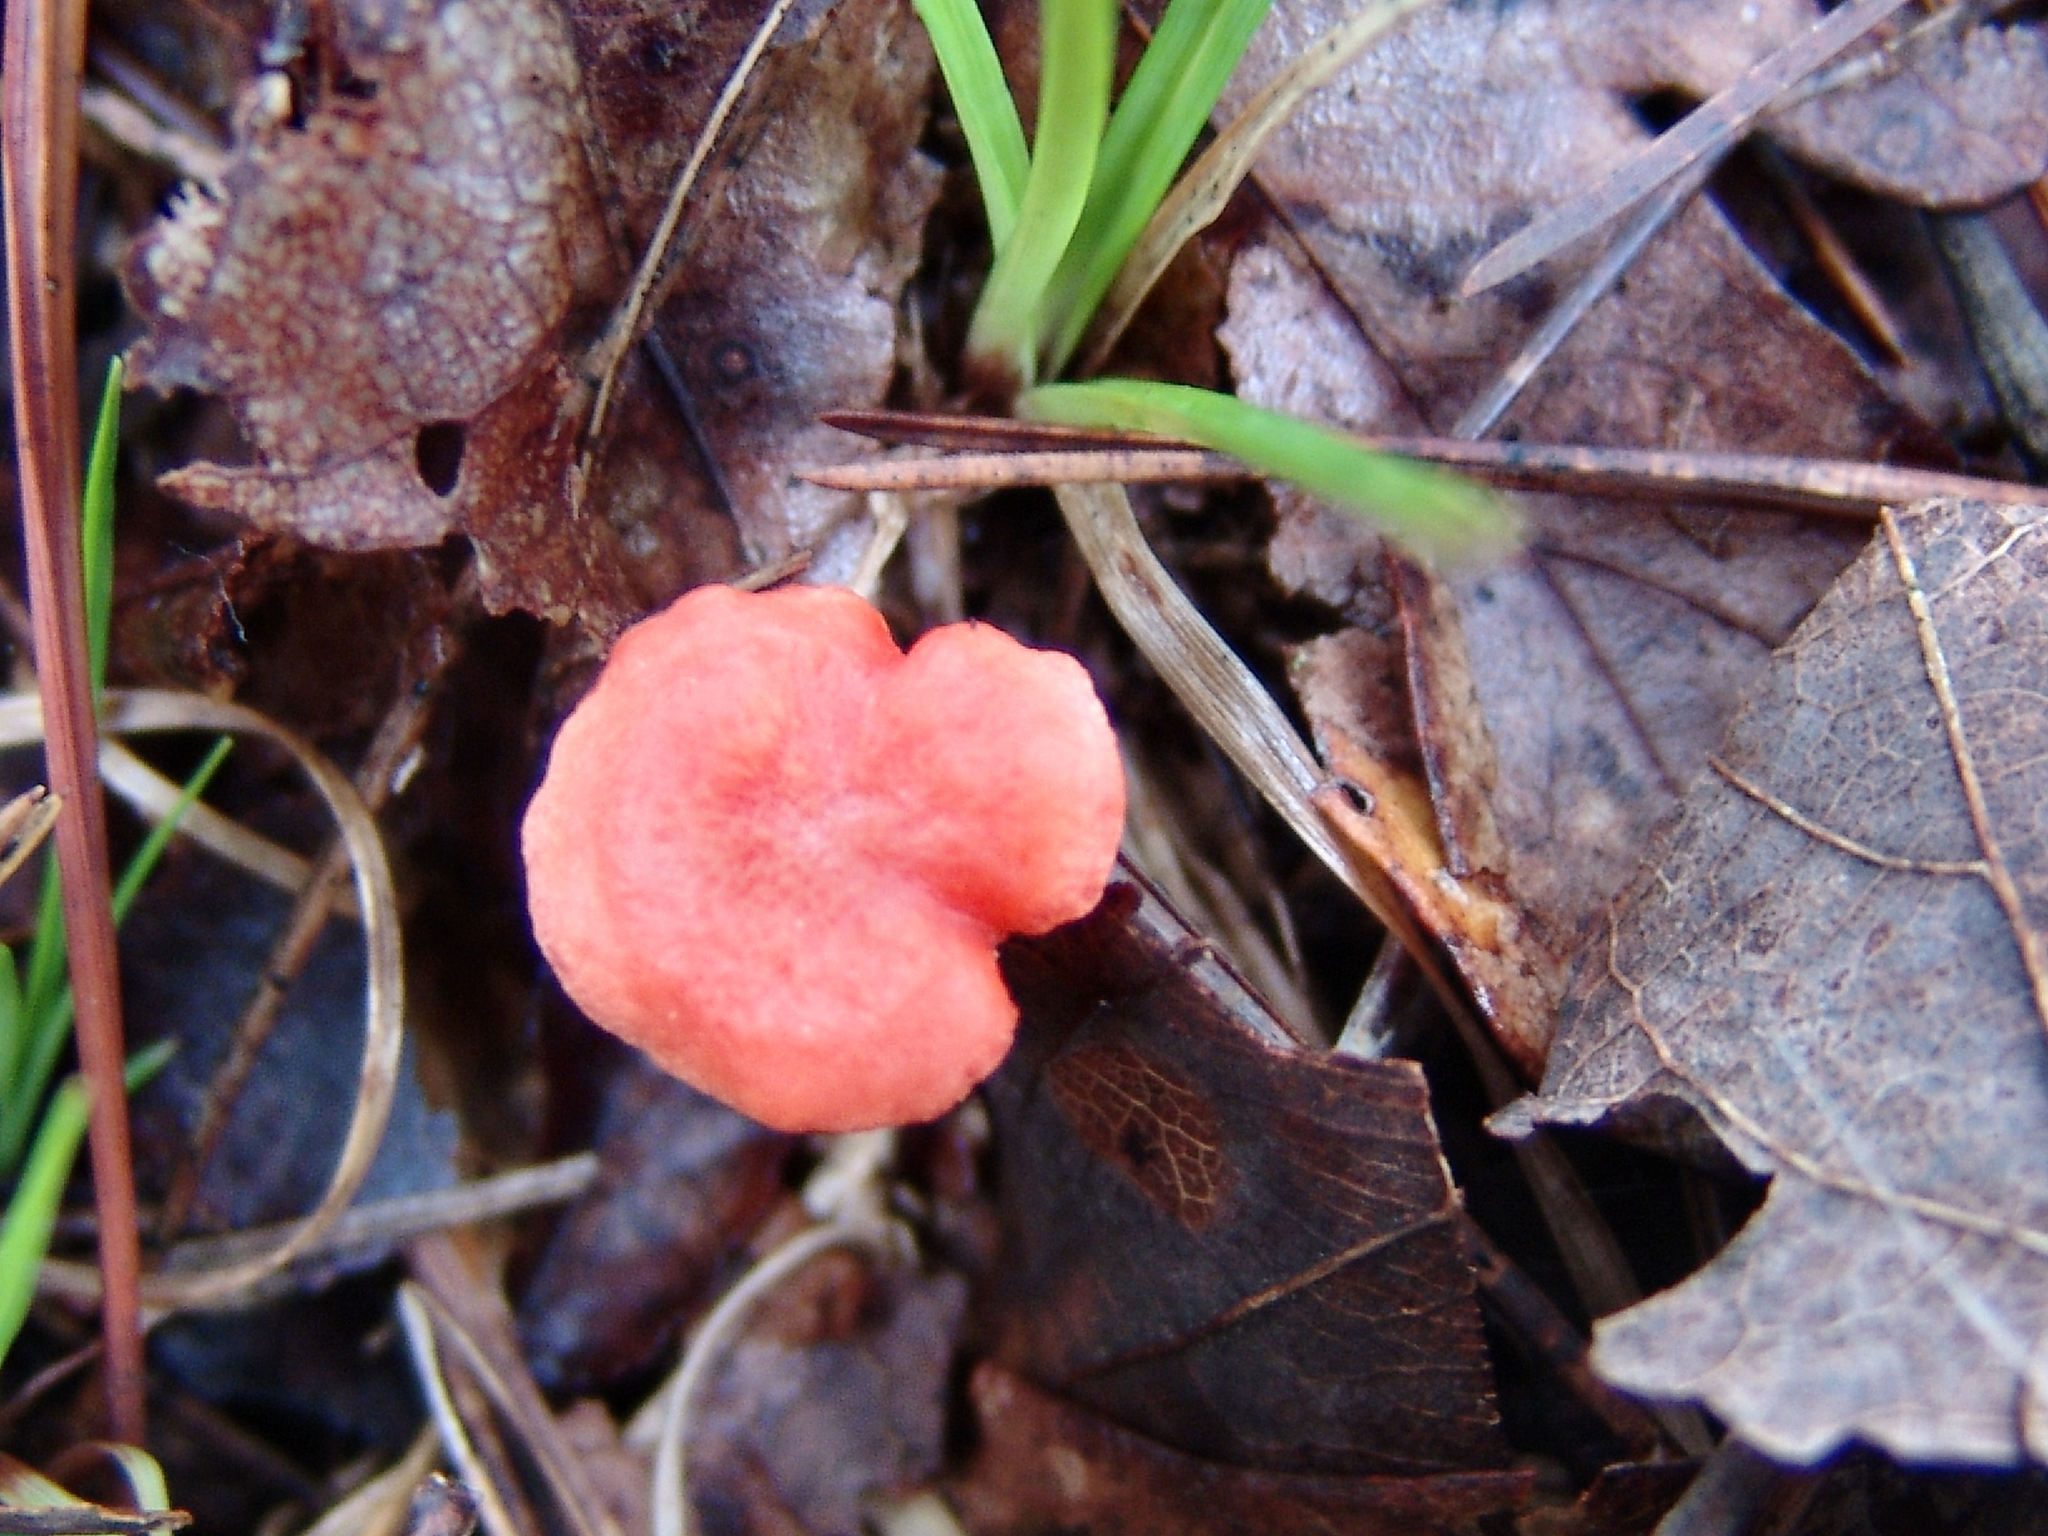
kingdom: Fungi
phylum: Basidiomycota
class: Agaricomycetes
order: Cantharellales
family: Hydnaceae
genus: Cantharellus
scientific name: Cantharellus cinnabarinus
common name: Cinnabar chanterelle
